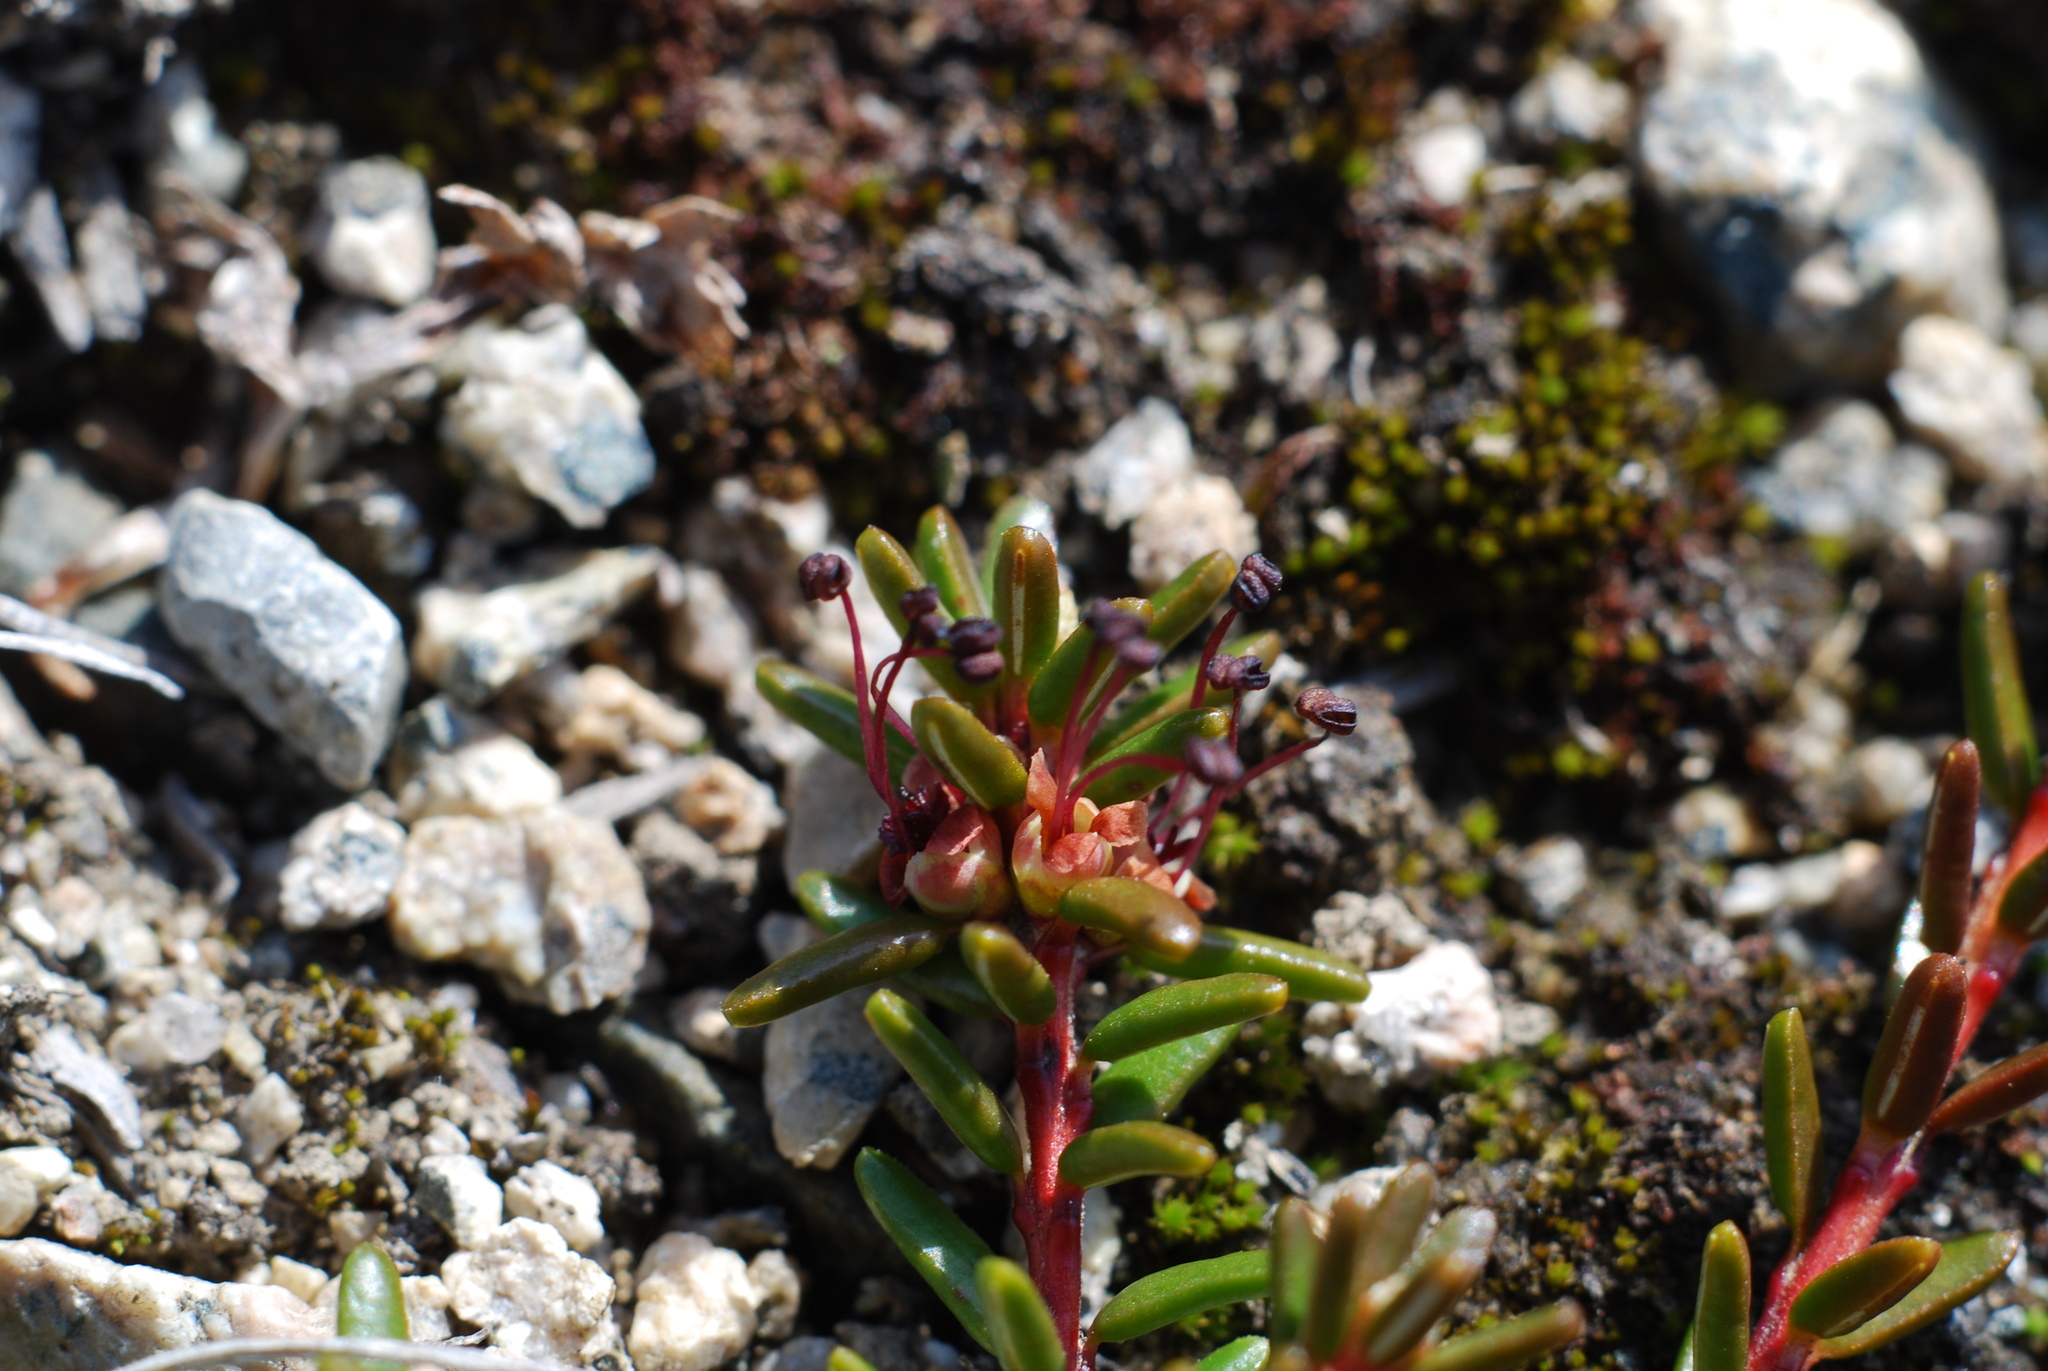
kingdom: Plantae
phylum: Tracheophyta
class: Magnoliopsida
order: Ericales
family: Ericaceae
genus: Empetrum
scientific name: Empetrum nigrum
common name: Black crowberry
